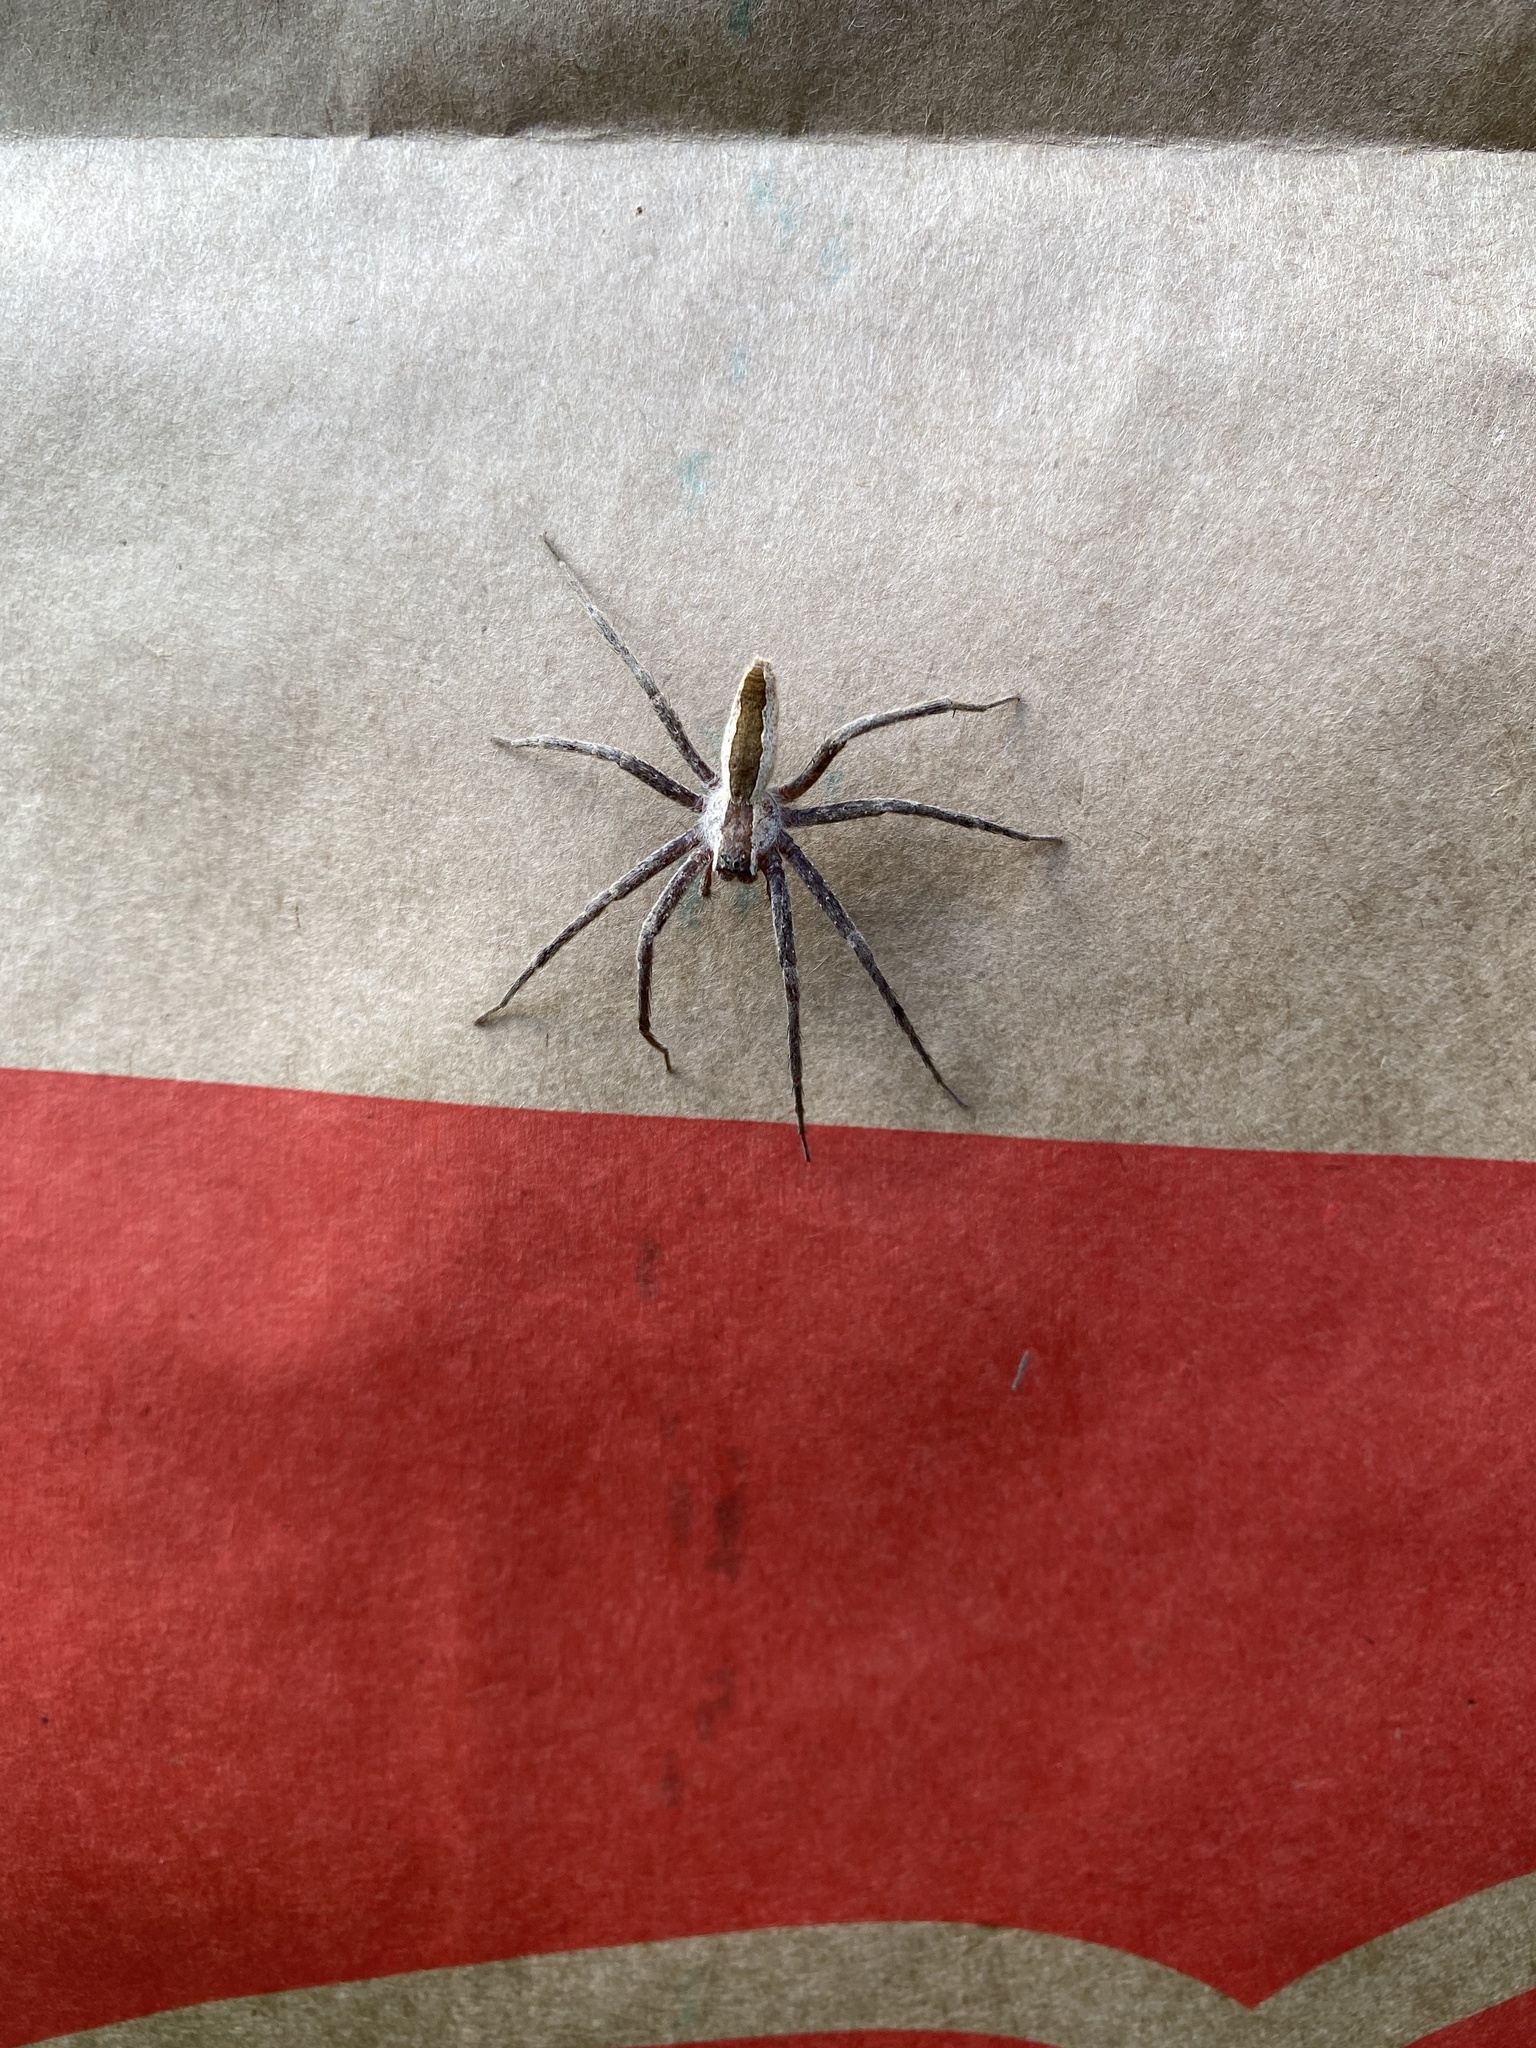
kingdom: Animalia
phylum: Arthropoda
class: Arachnida
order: Araneae
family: Pisauridae
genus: Pisaurina
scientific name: Pisaurina mira
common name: American nursery web spider
